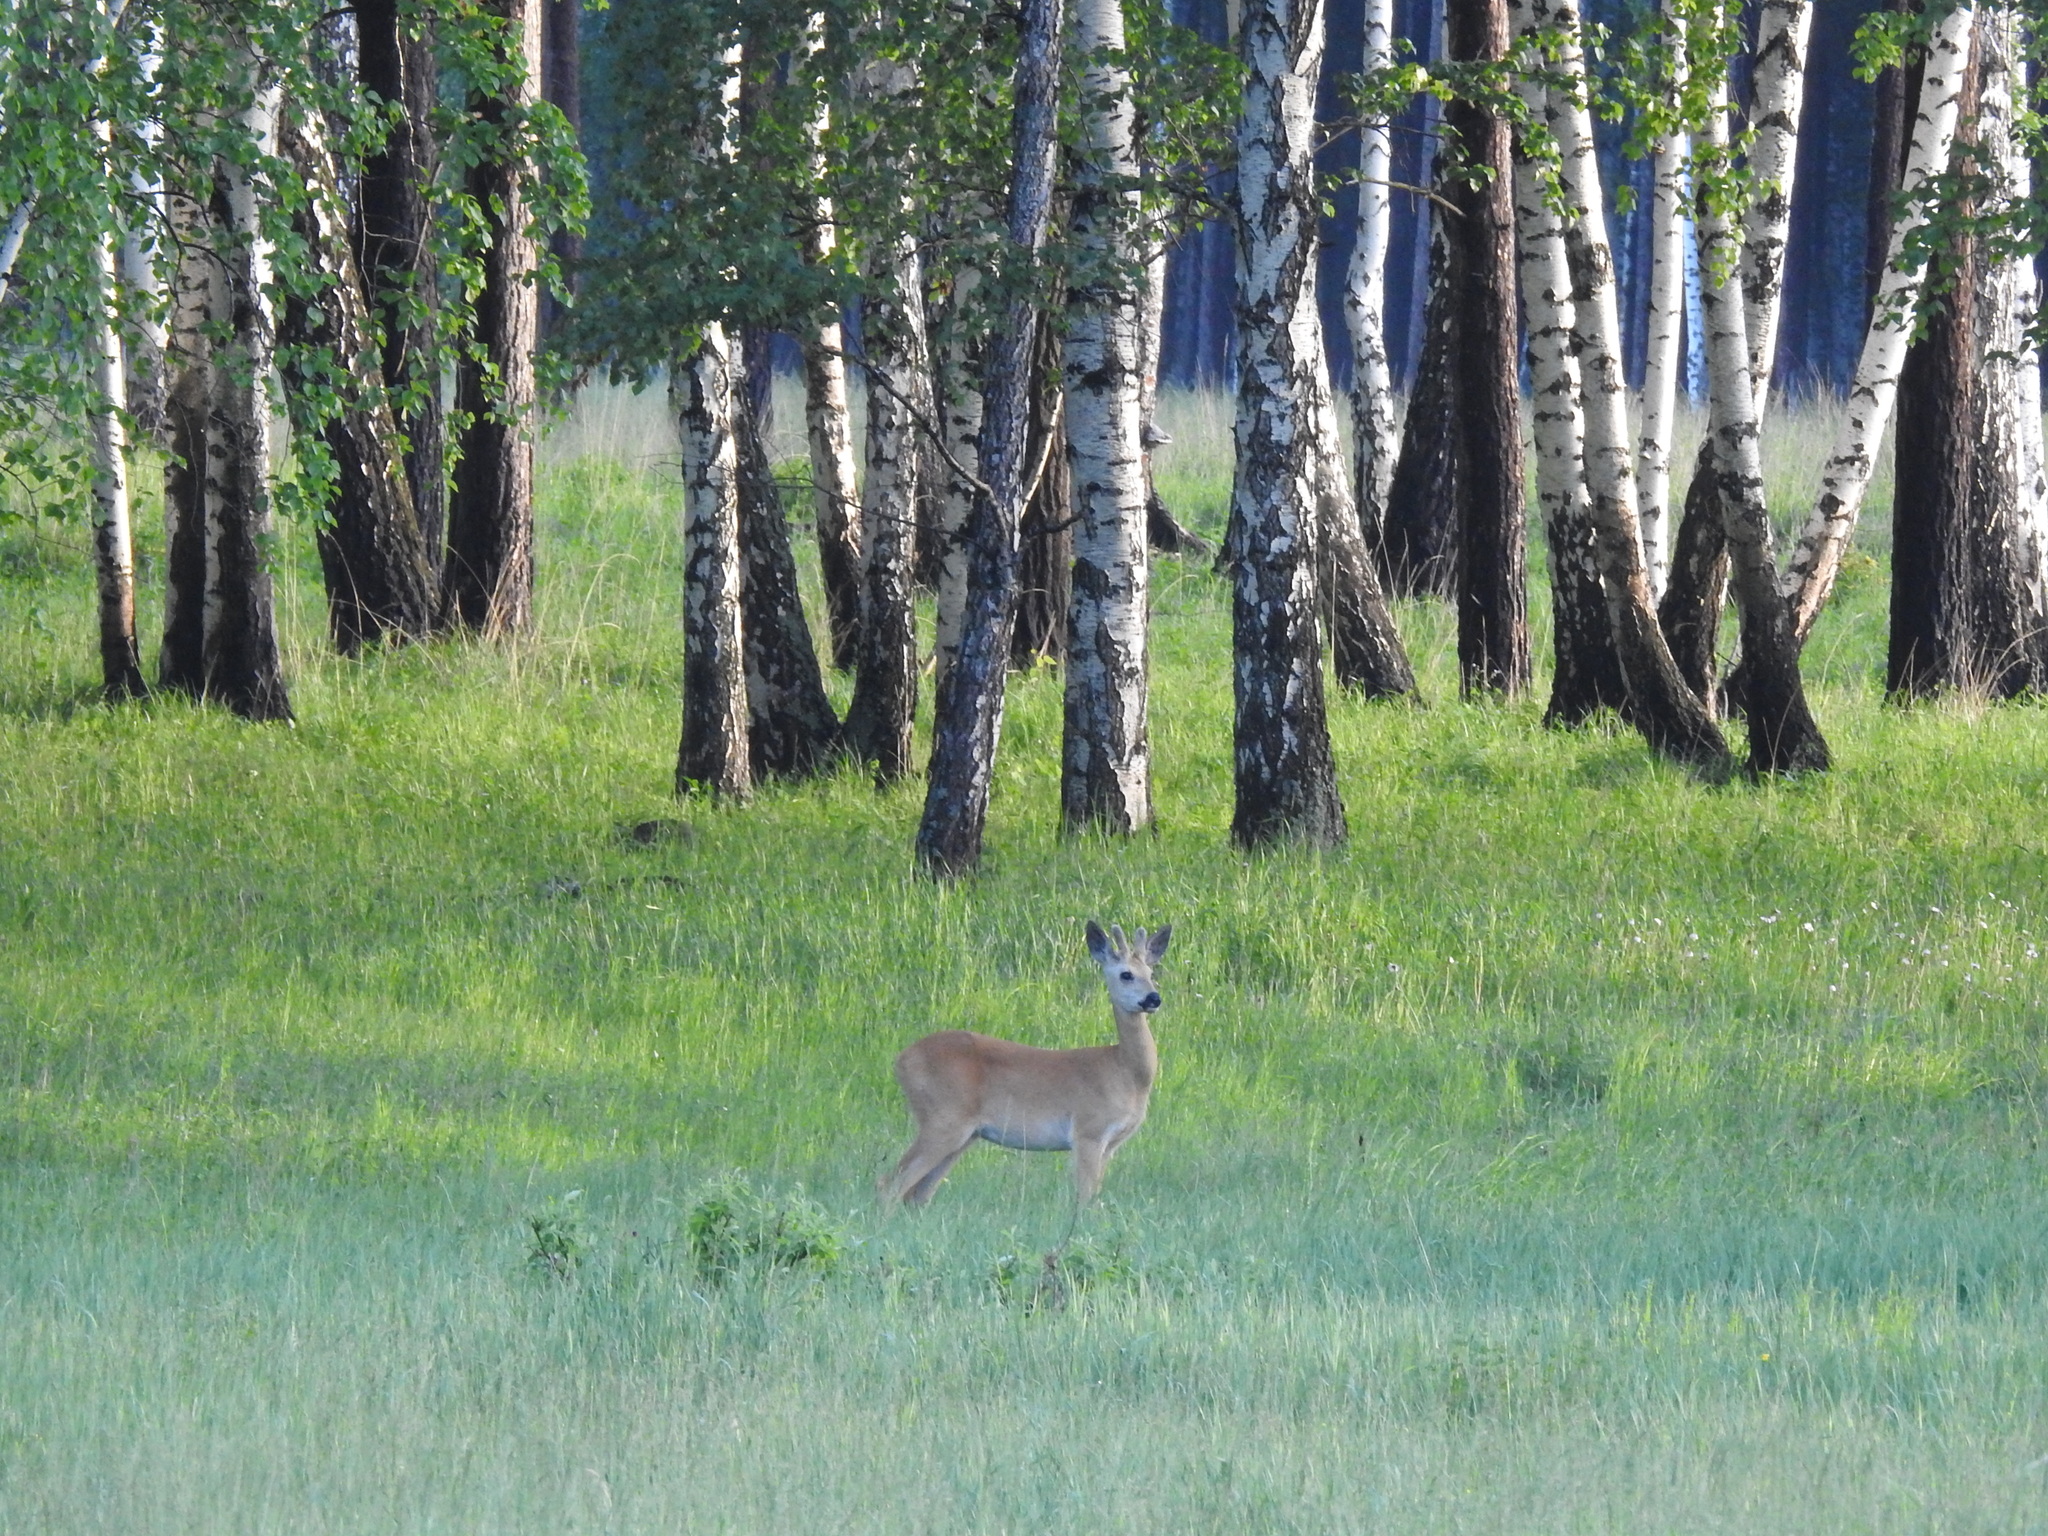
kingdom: Animalia
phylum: Chordata
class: Mammalia
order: Artiodactyla
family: Cervidae
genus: Capreolus
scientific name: Capreolus pygargus
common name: Siberian roe
